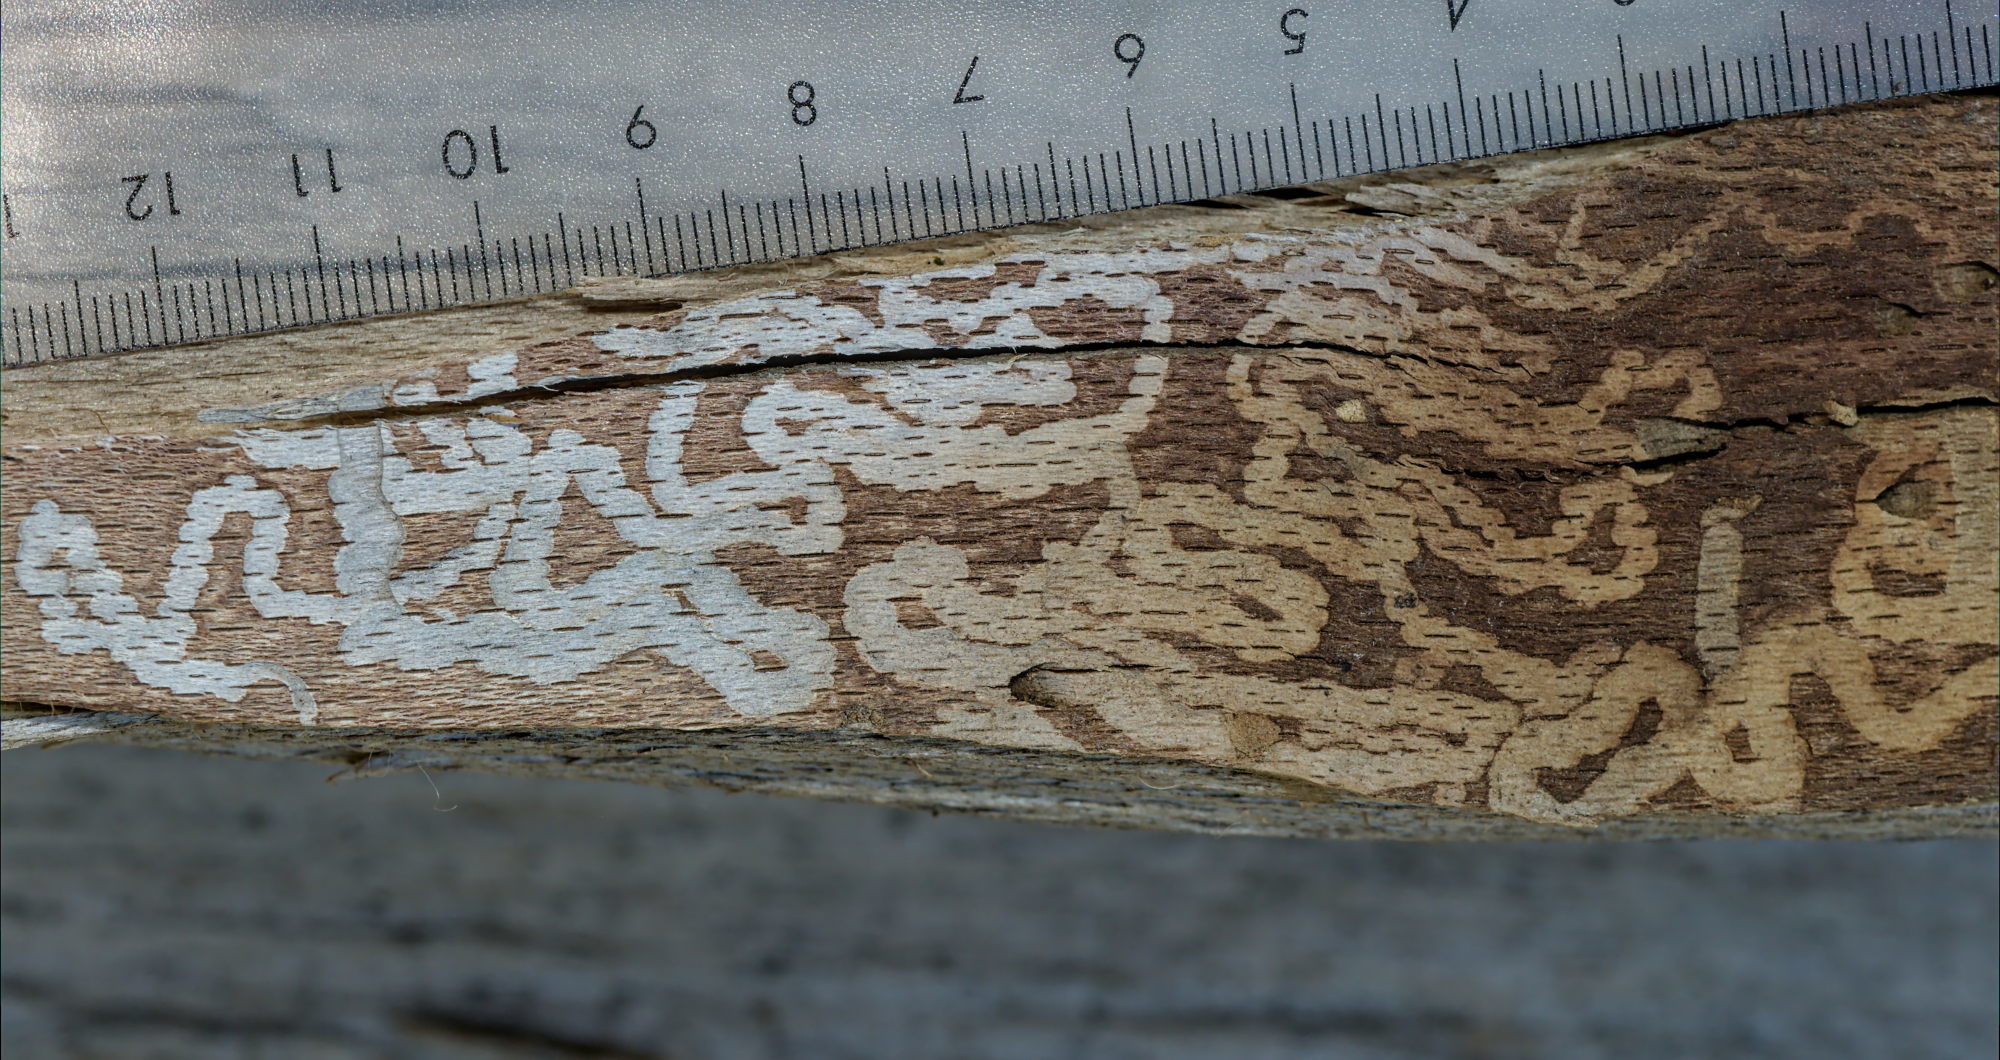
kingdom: Animalia
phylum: Arthropoda
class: Insecta
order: Coleoptera
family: Buprestidae
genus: Chrysobothris
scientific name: Chrysobothris affinis
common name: Beetle
